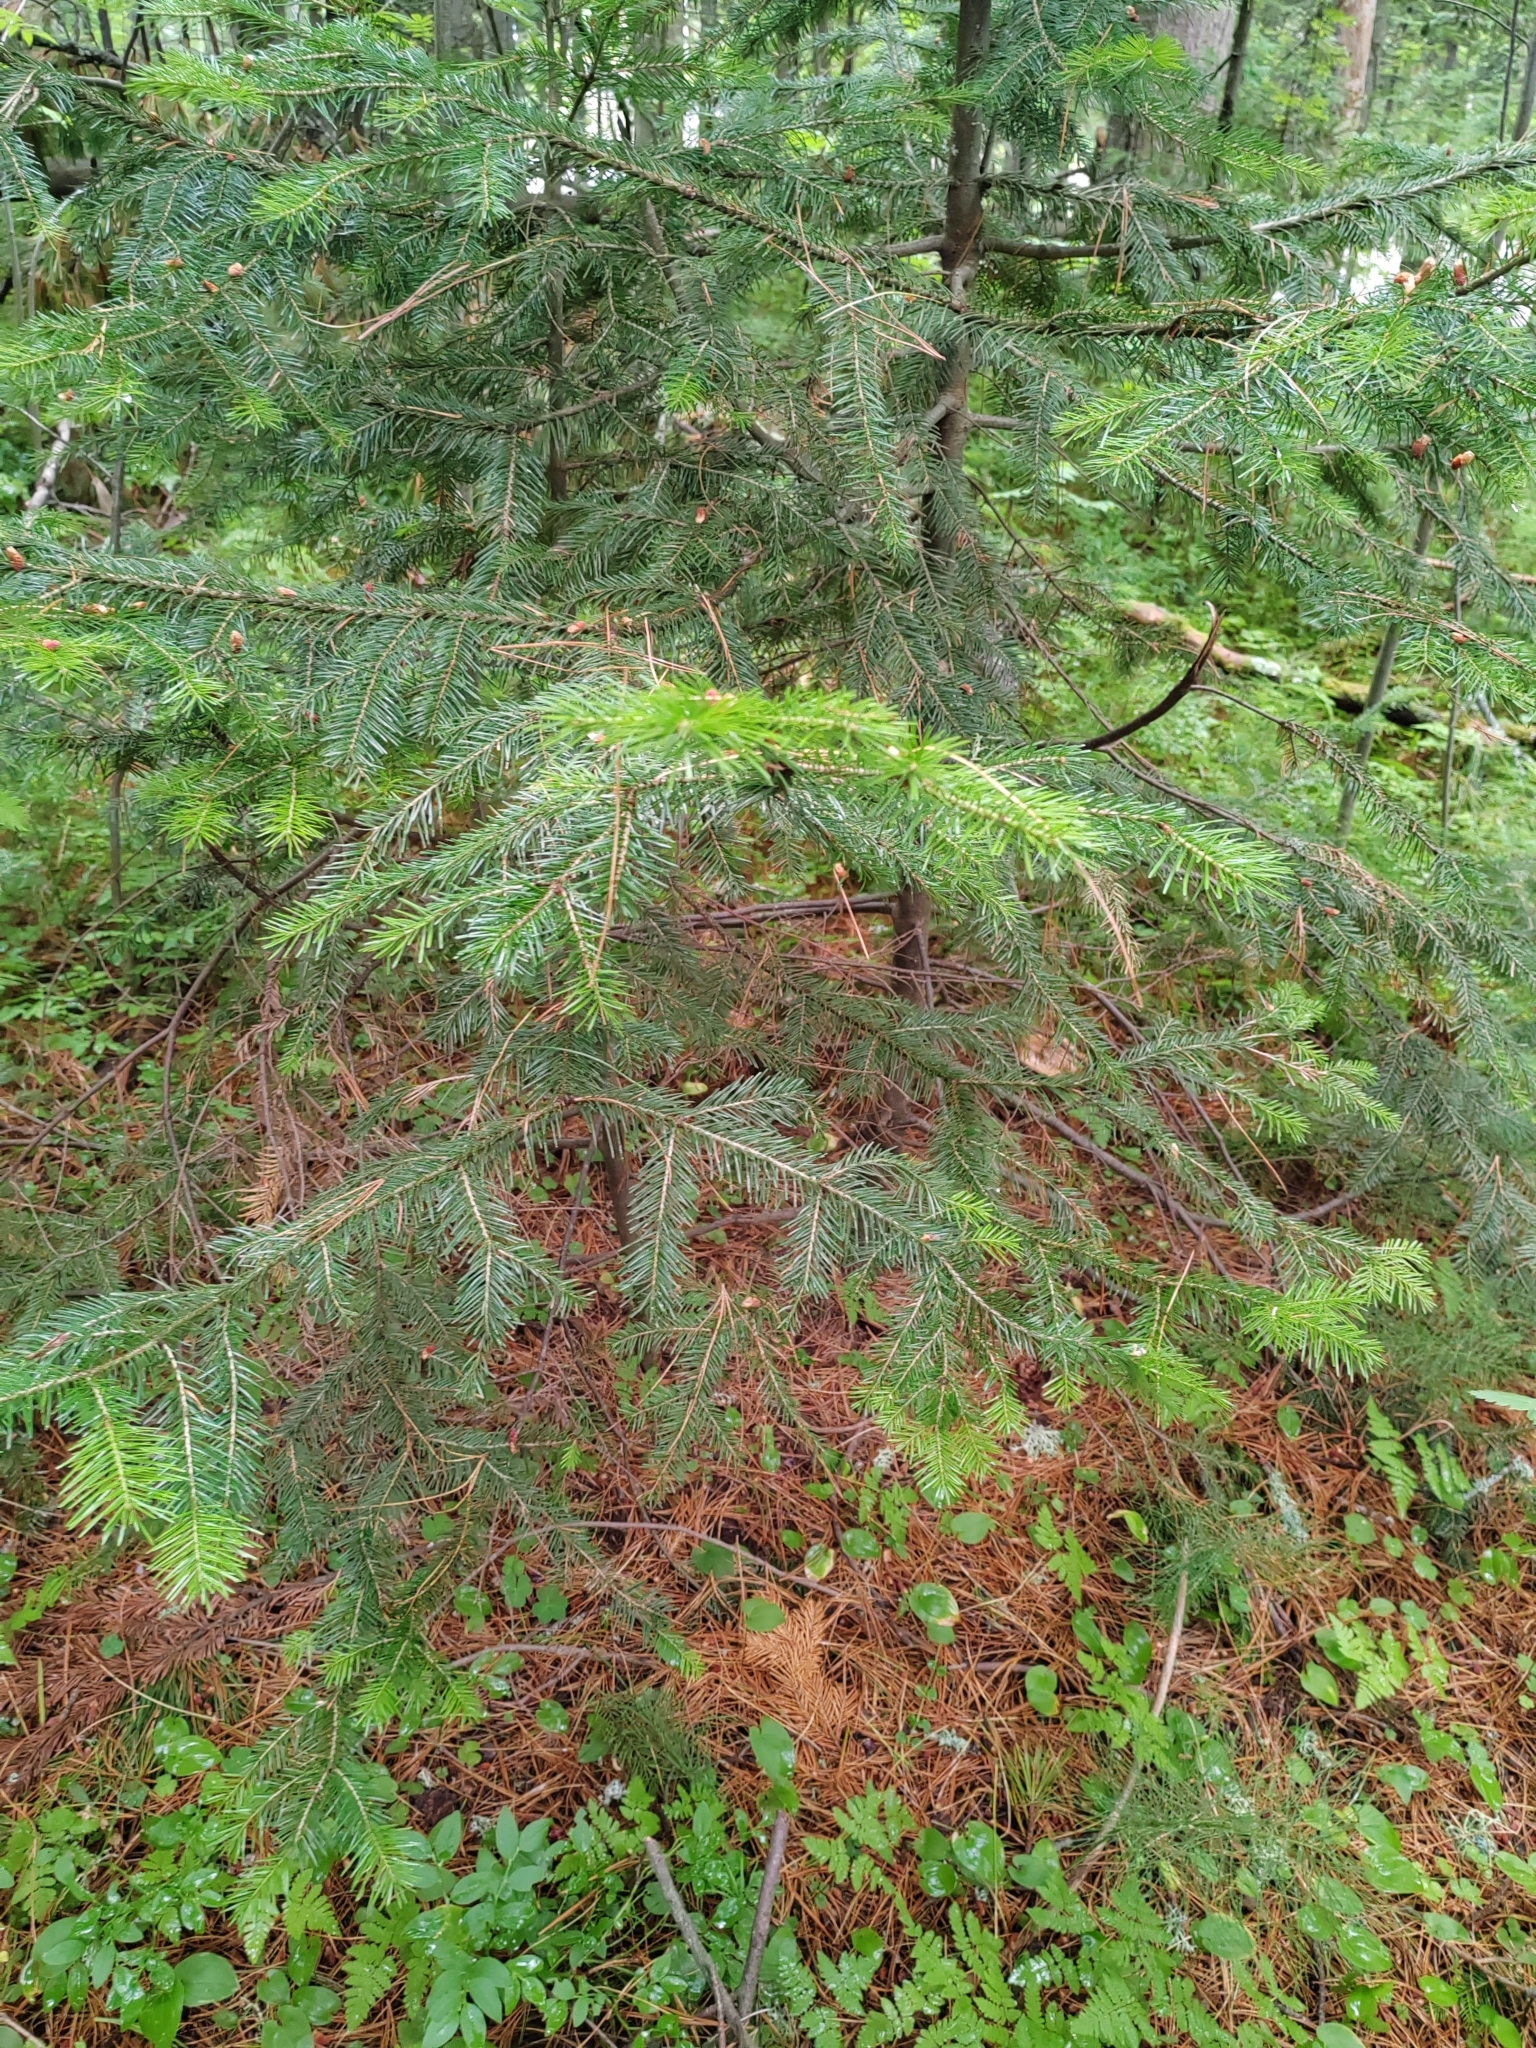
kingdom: Plantae
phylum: Tracheophyta
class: Pinopsida
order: Pinales
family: Pinaceae
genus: Abies
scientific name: Abies sibirica
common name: Siberian fir
